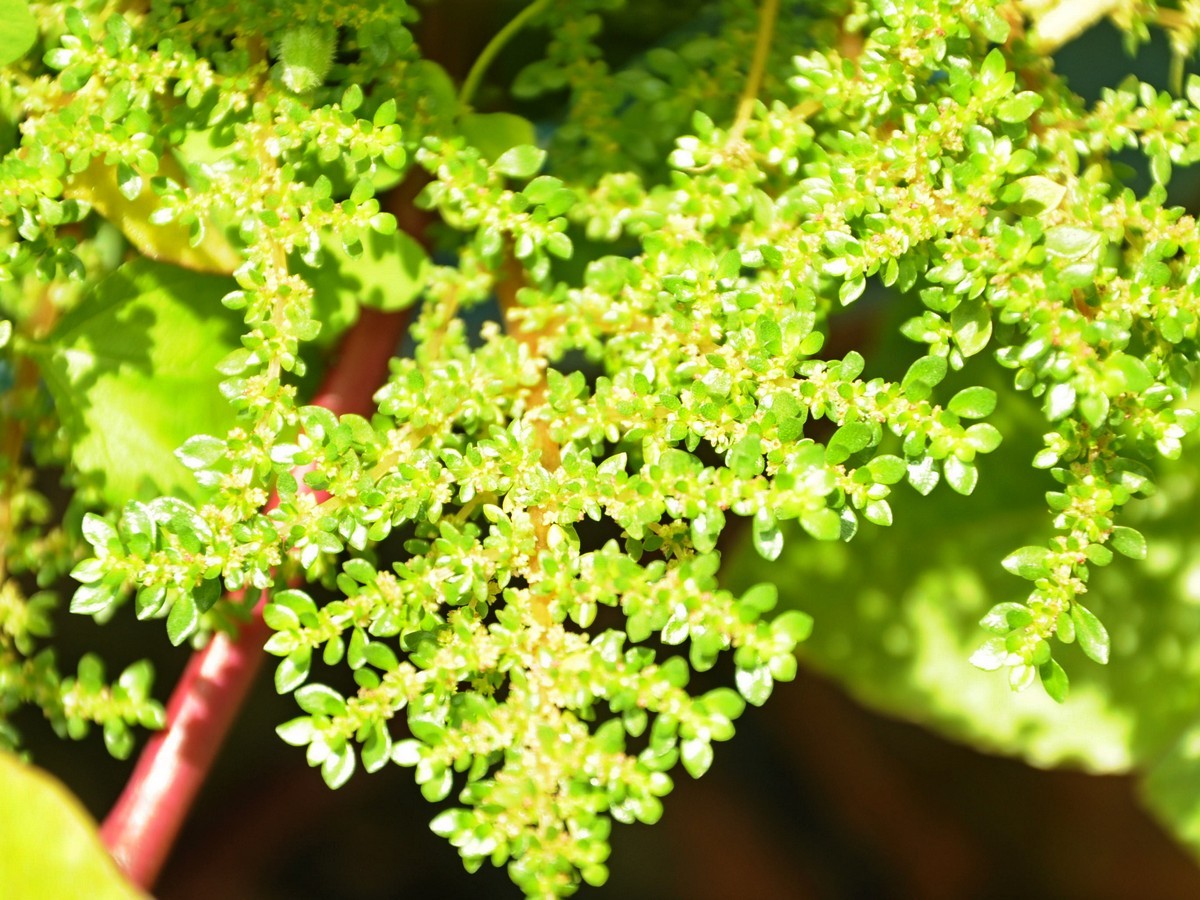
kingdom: Plantae
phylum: Tracheophyta
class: Magnoliopsida
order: Rosales
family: Urticaceae
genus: Pilea
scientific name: Pilea microphylla
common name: Artillery-plant
